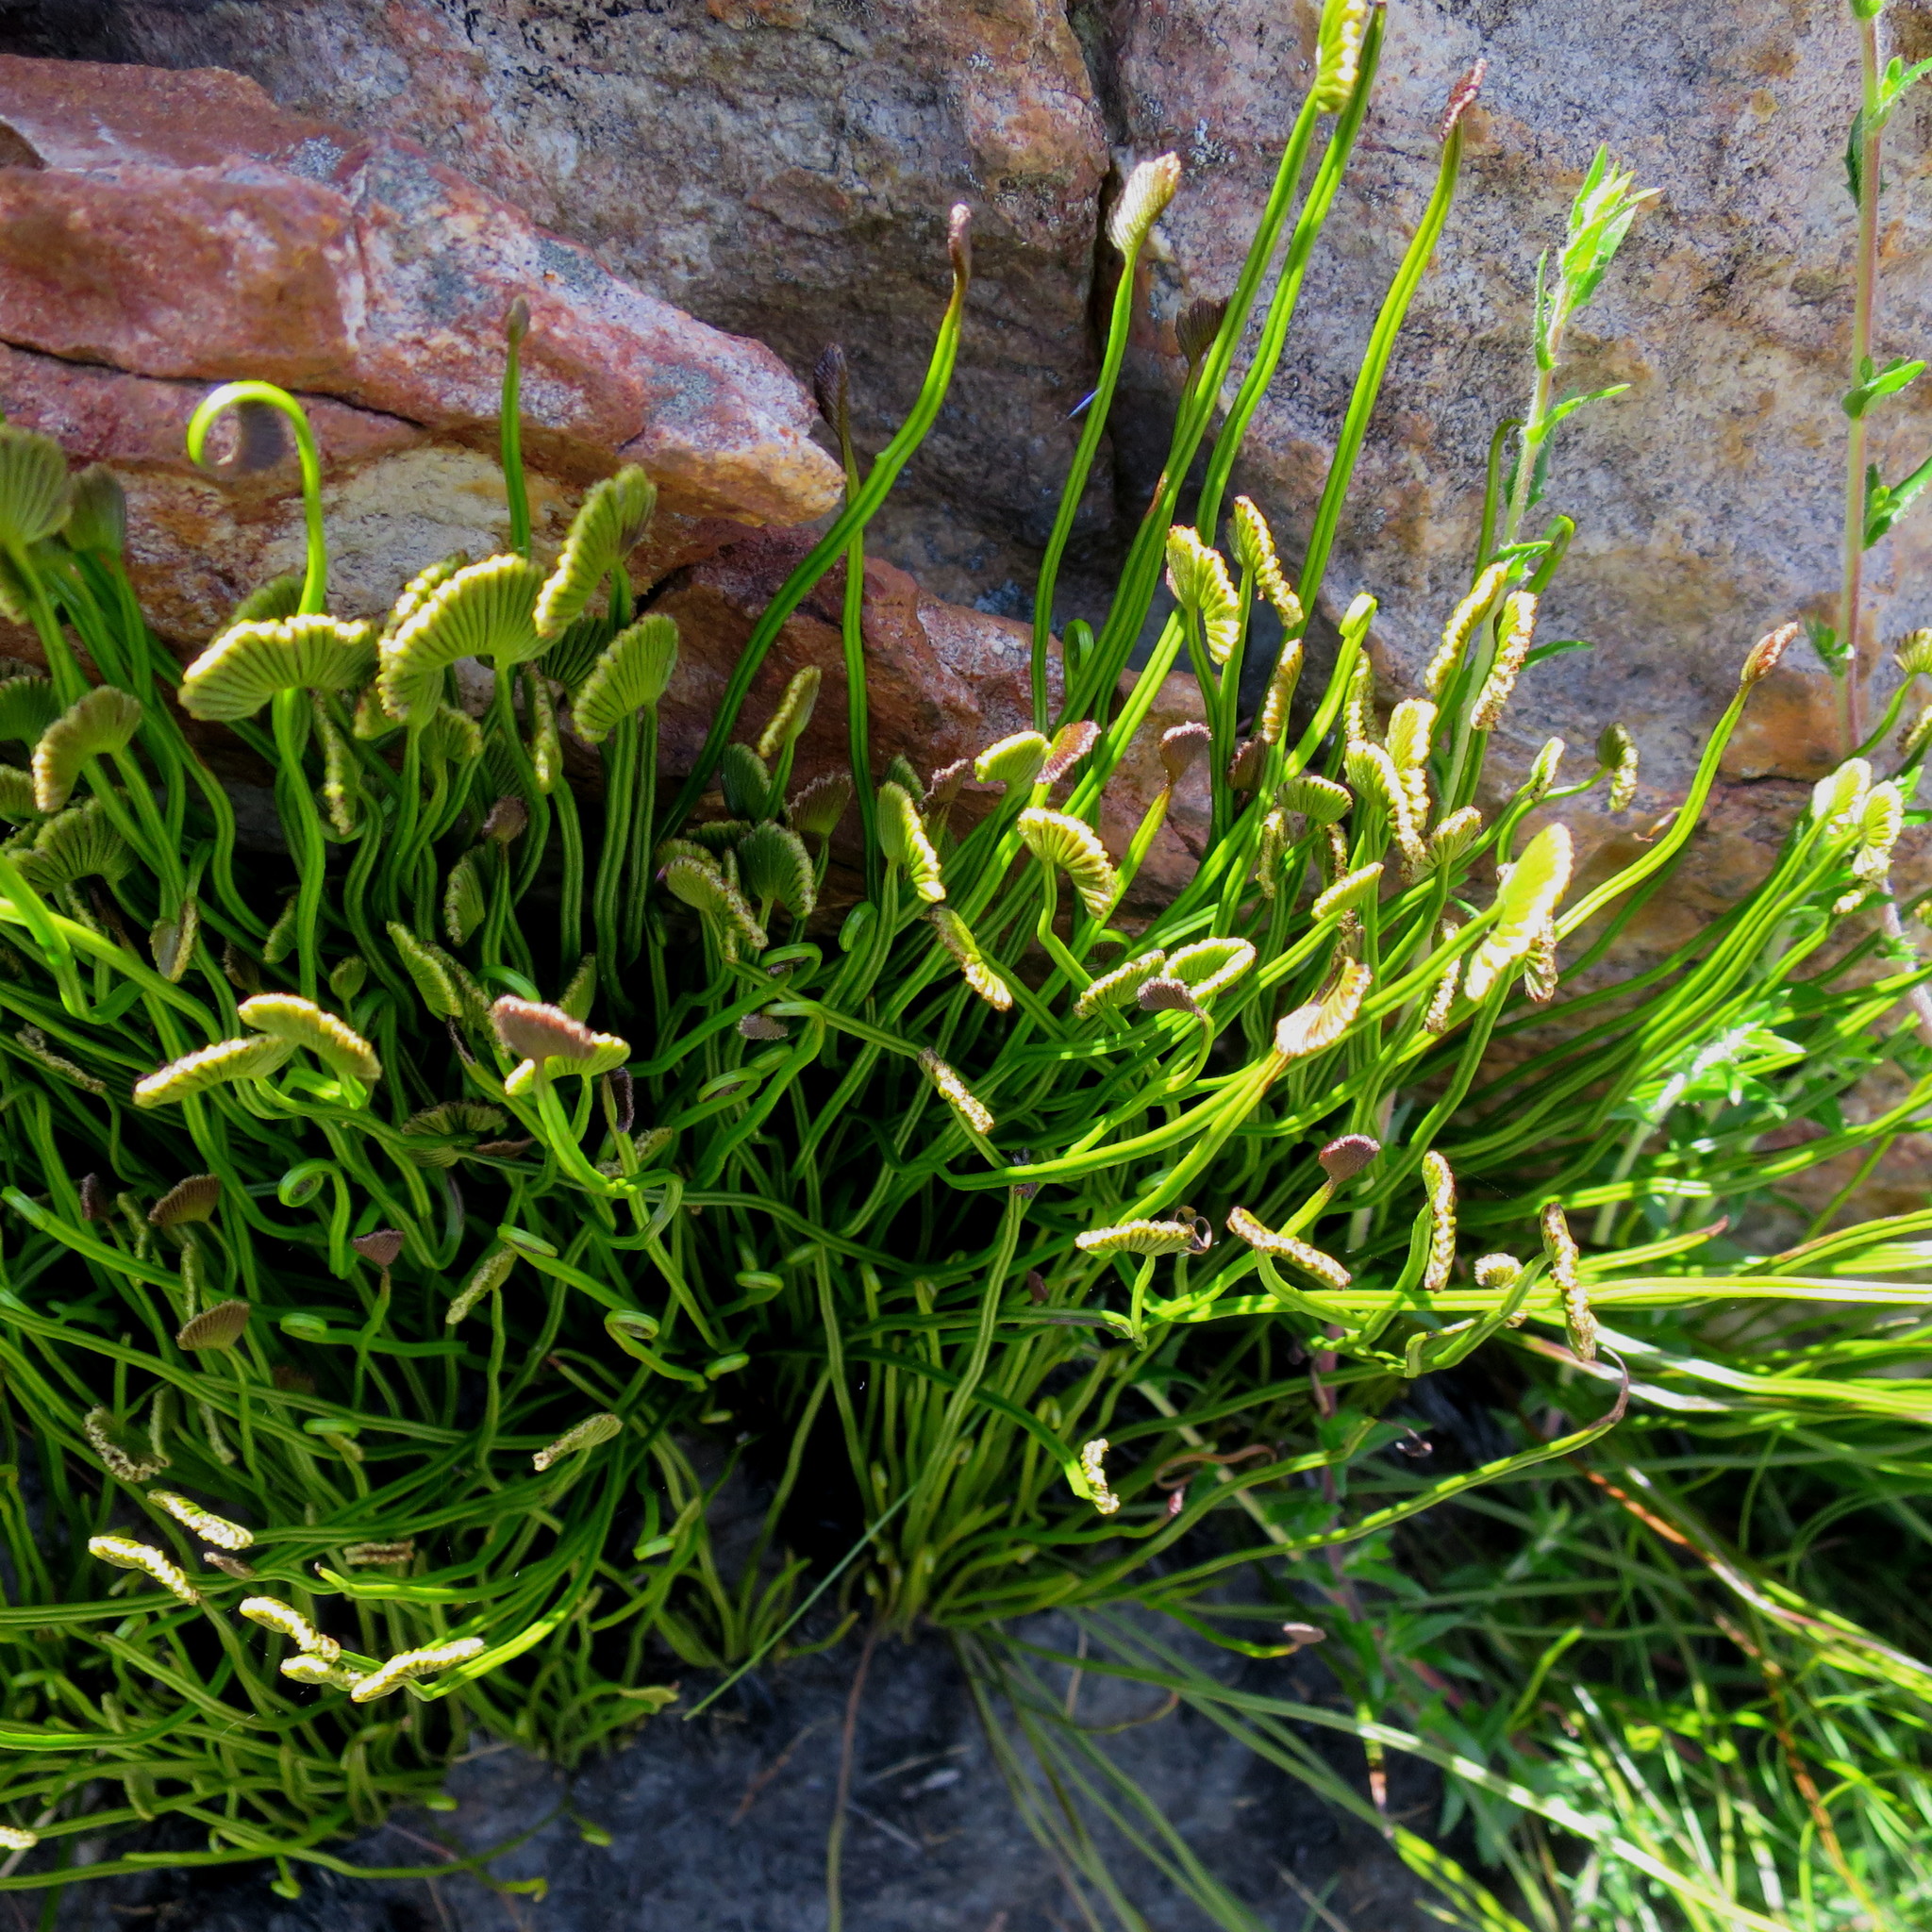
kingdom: Plantae
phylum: Tracheophyta
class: Polypodiopsida
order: Schizaeales
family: Schizaeaceae
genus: Schizaea
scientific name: Schizaea pectinata
